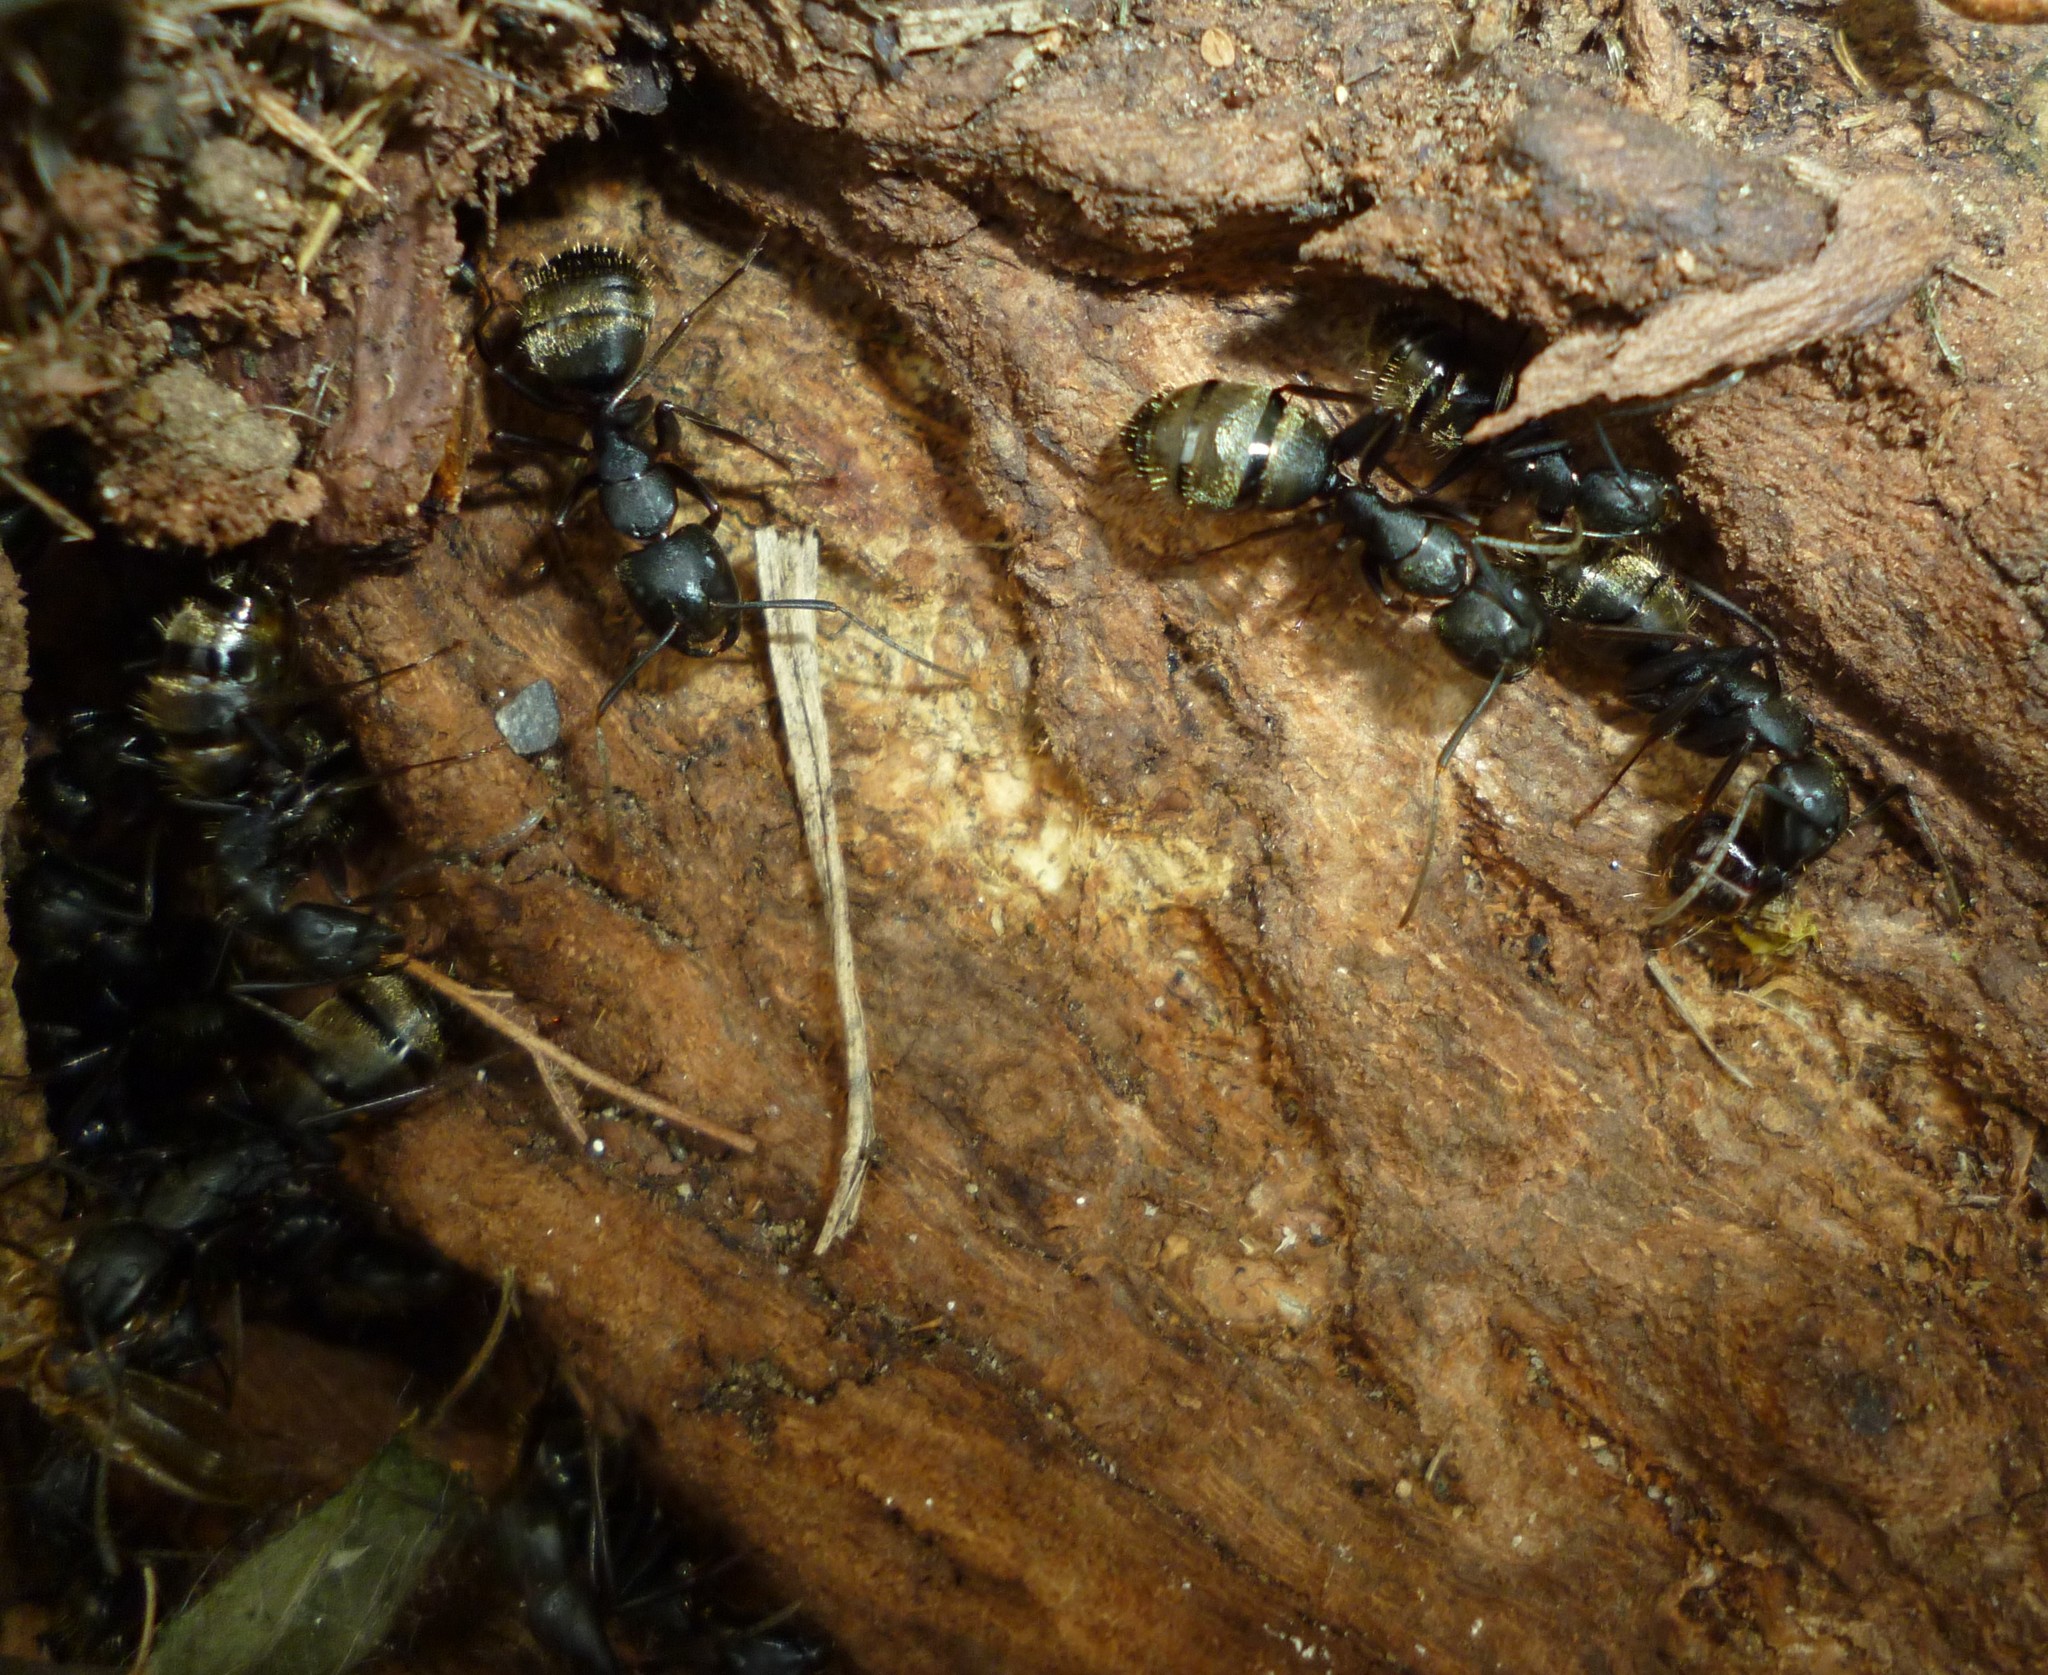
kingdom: Animalia
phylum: Arthropoda
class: Insecta
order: Hymenoptera
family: Formicidae
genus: Camponotus
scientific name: Camponotus pennsylvanicus
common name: Black carpenter ant
